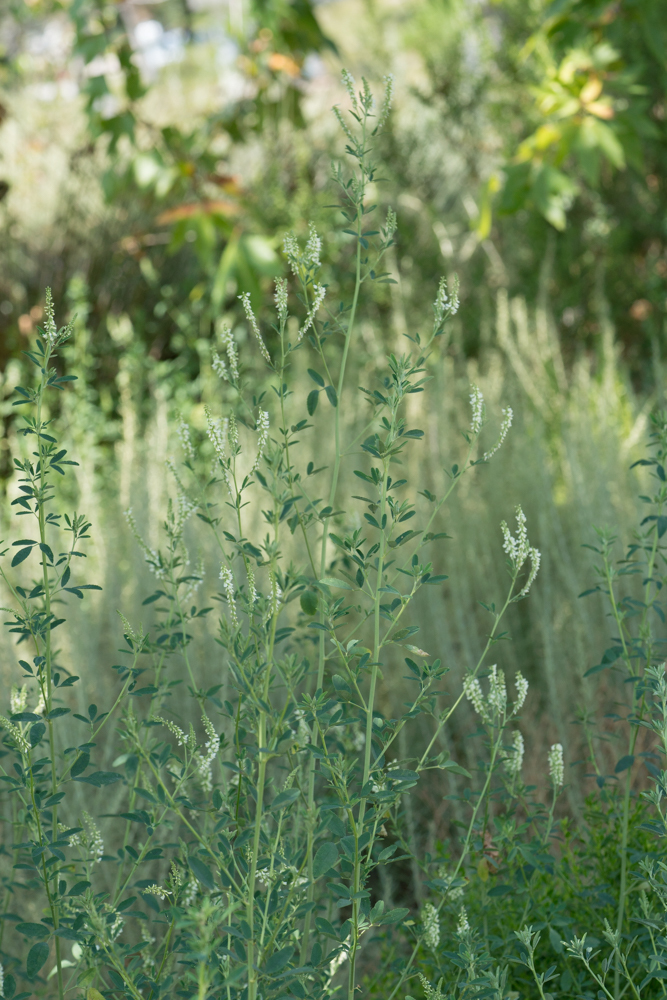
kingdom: Plantae
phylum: Tracheophyta
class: Magnoliopsida
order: Fabales
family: Fabaceae
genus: Melilotus
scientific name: Melilotus albus
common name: White melilot
